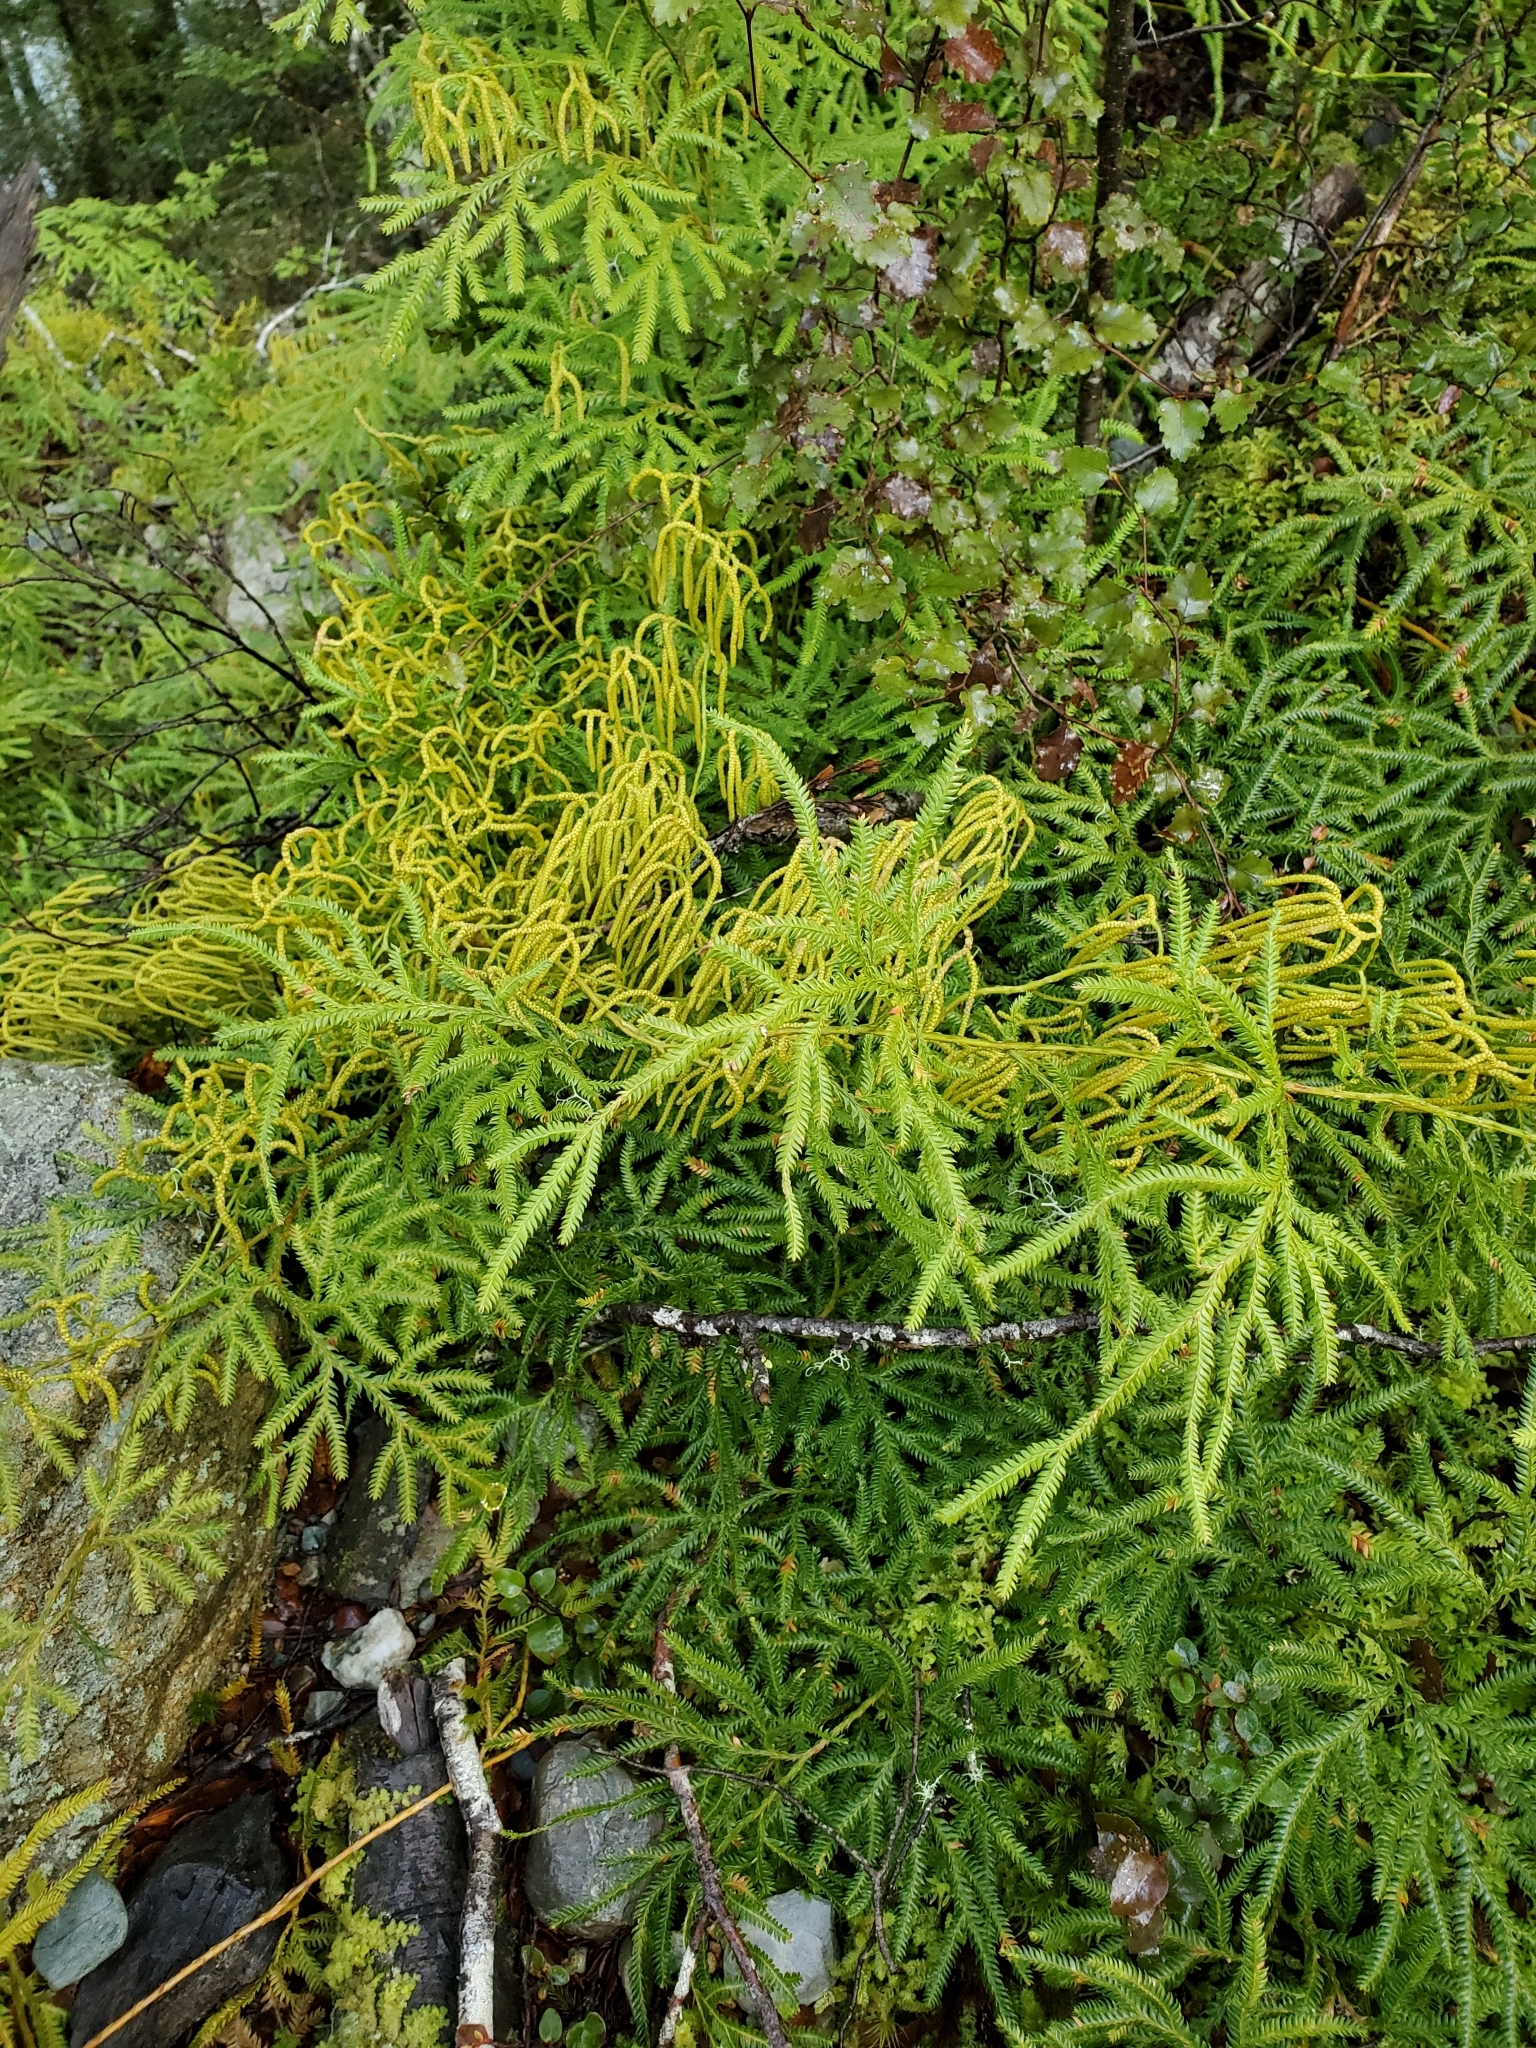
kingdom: Plantae
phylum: Tracheophyta
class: Lycopodiopsida
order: Lycopodiales
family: Lycopodiaceae
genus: Lycopodium
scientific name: Lycopodium volubile
